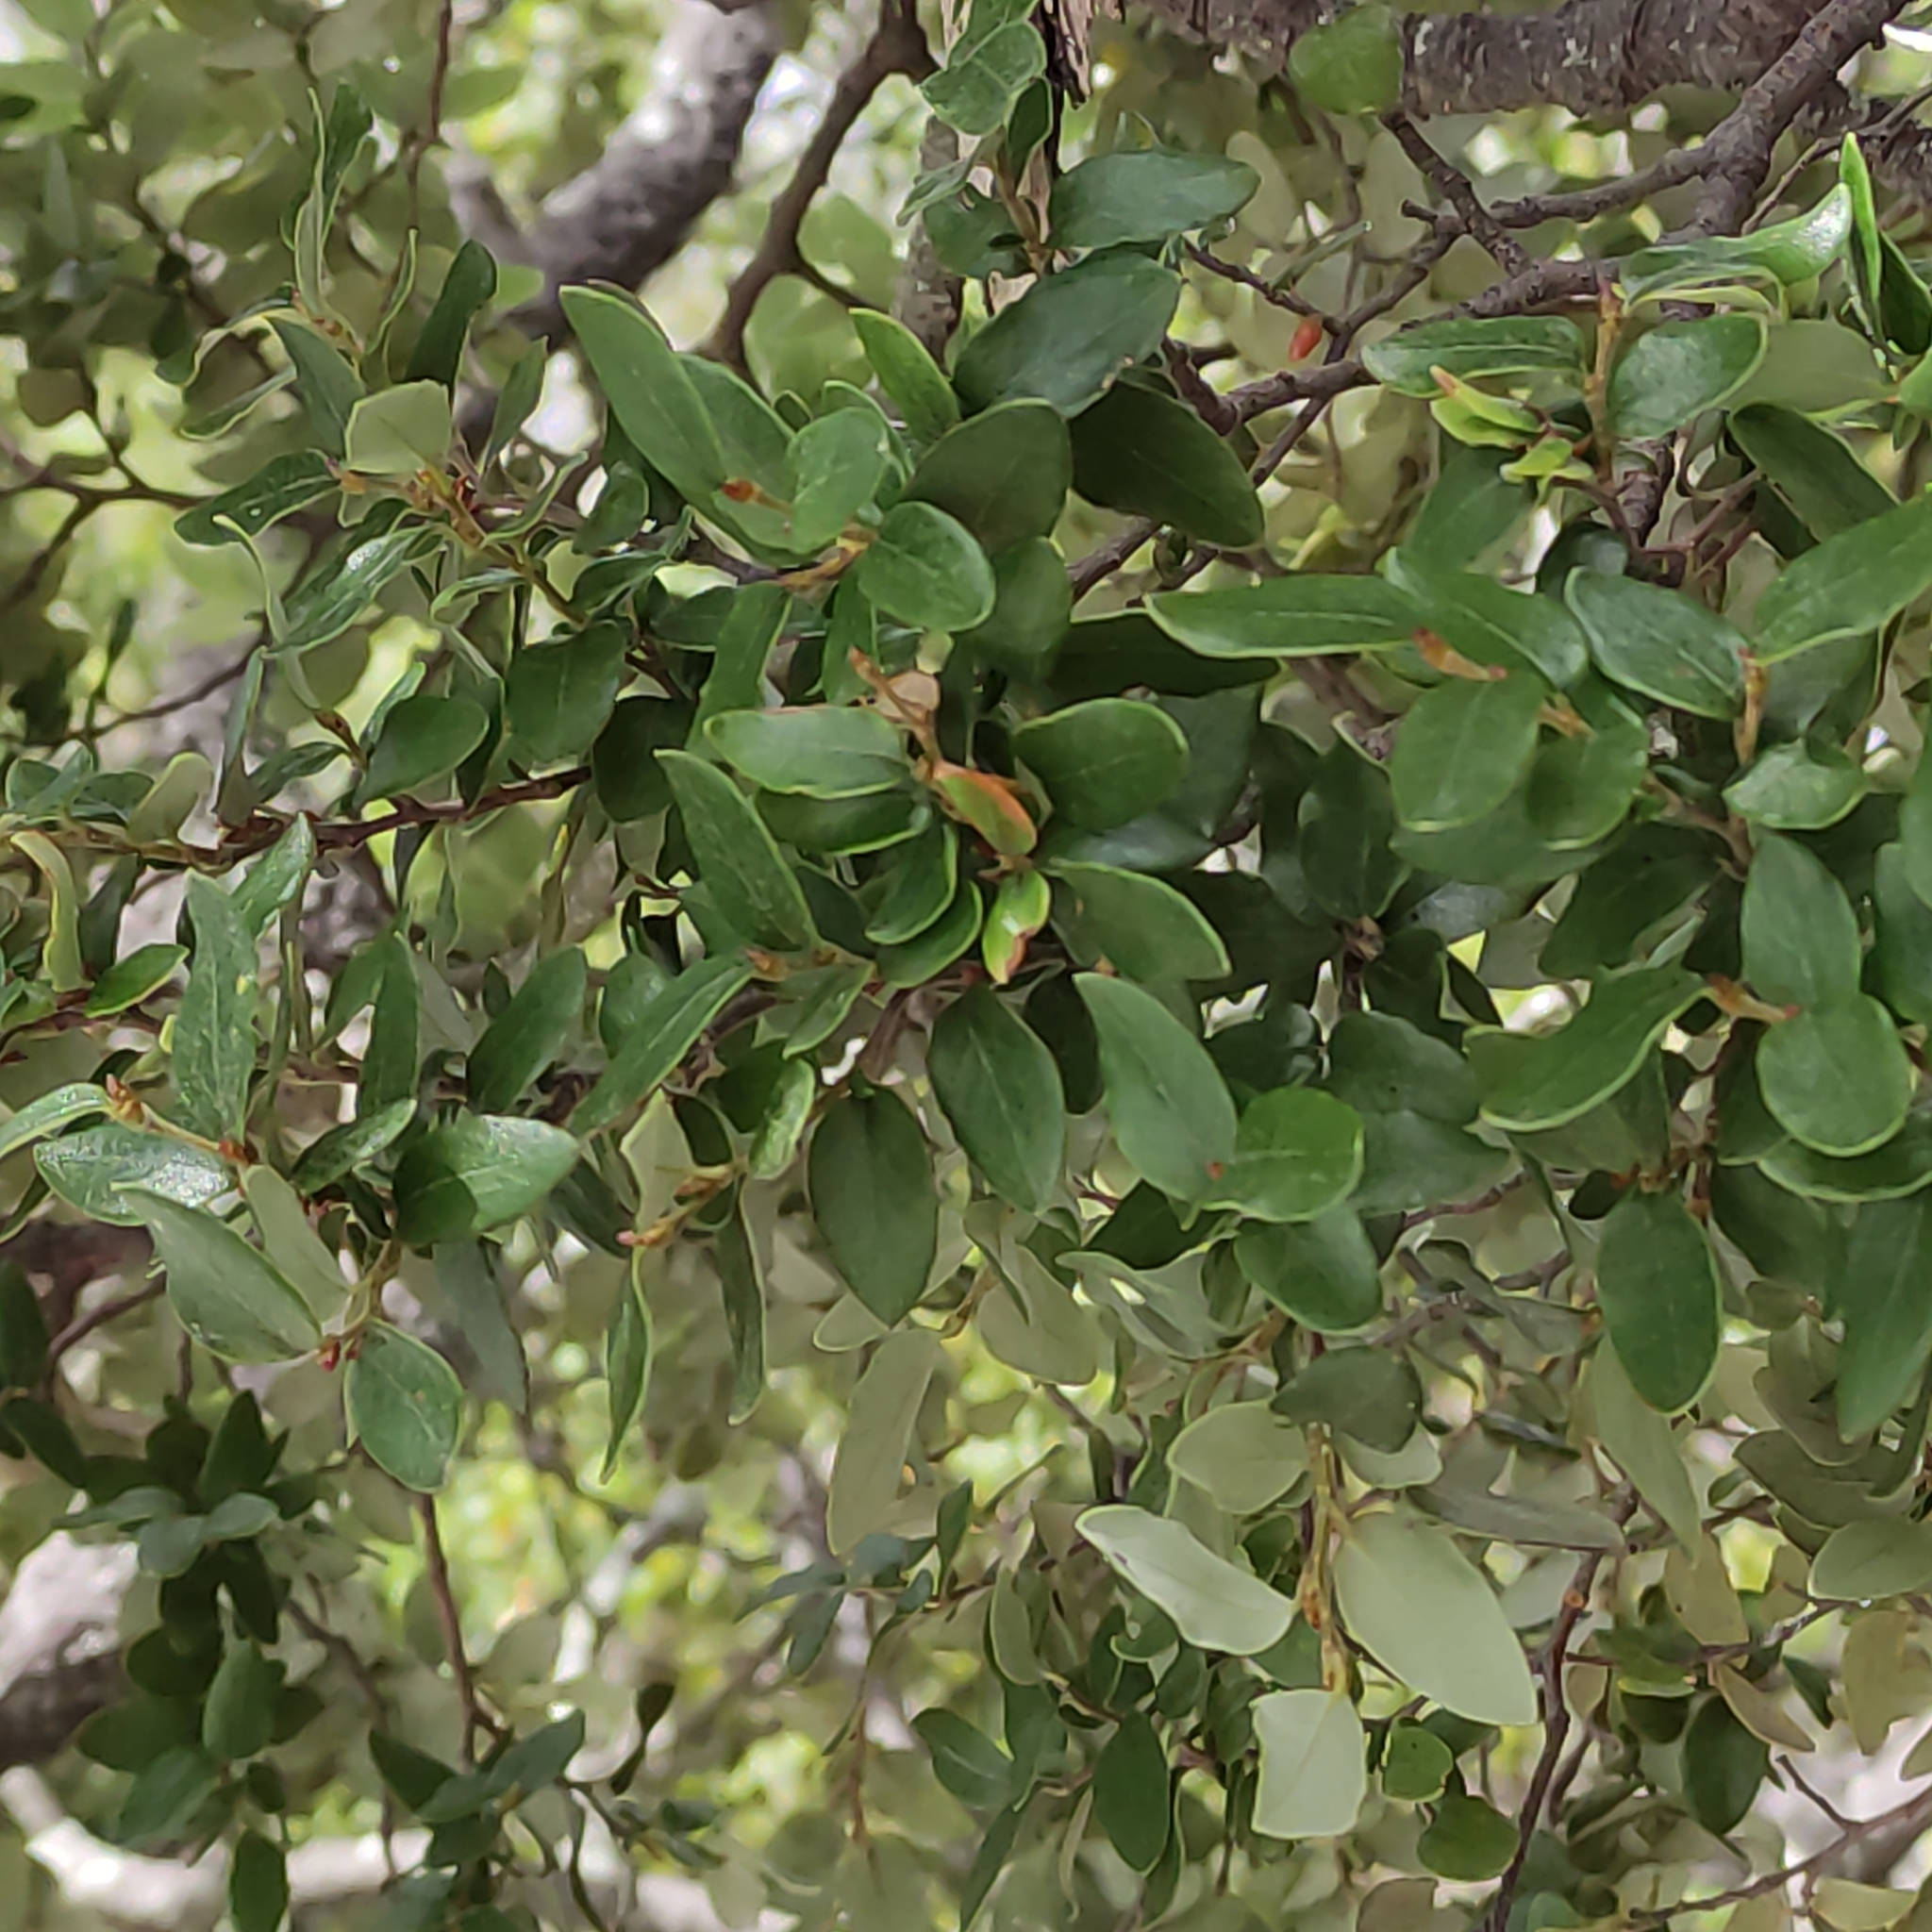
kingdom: Plantae
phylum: Tracheophyta
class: Magnoliopsida
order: Fagales
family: Nothofagaceae
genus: Nothofagus
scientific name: Nothofagus cliffortioides
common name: Mountain beech
